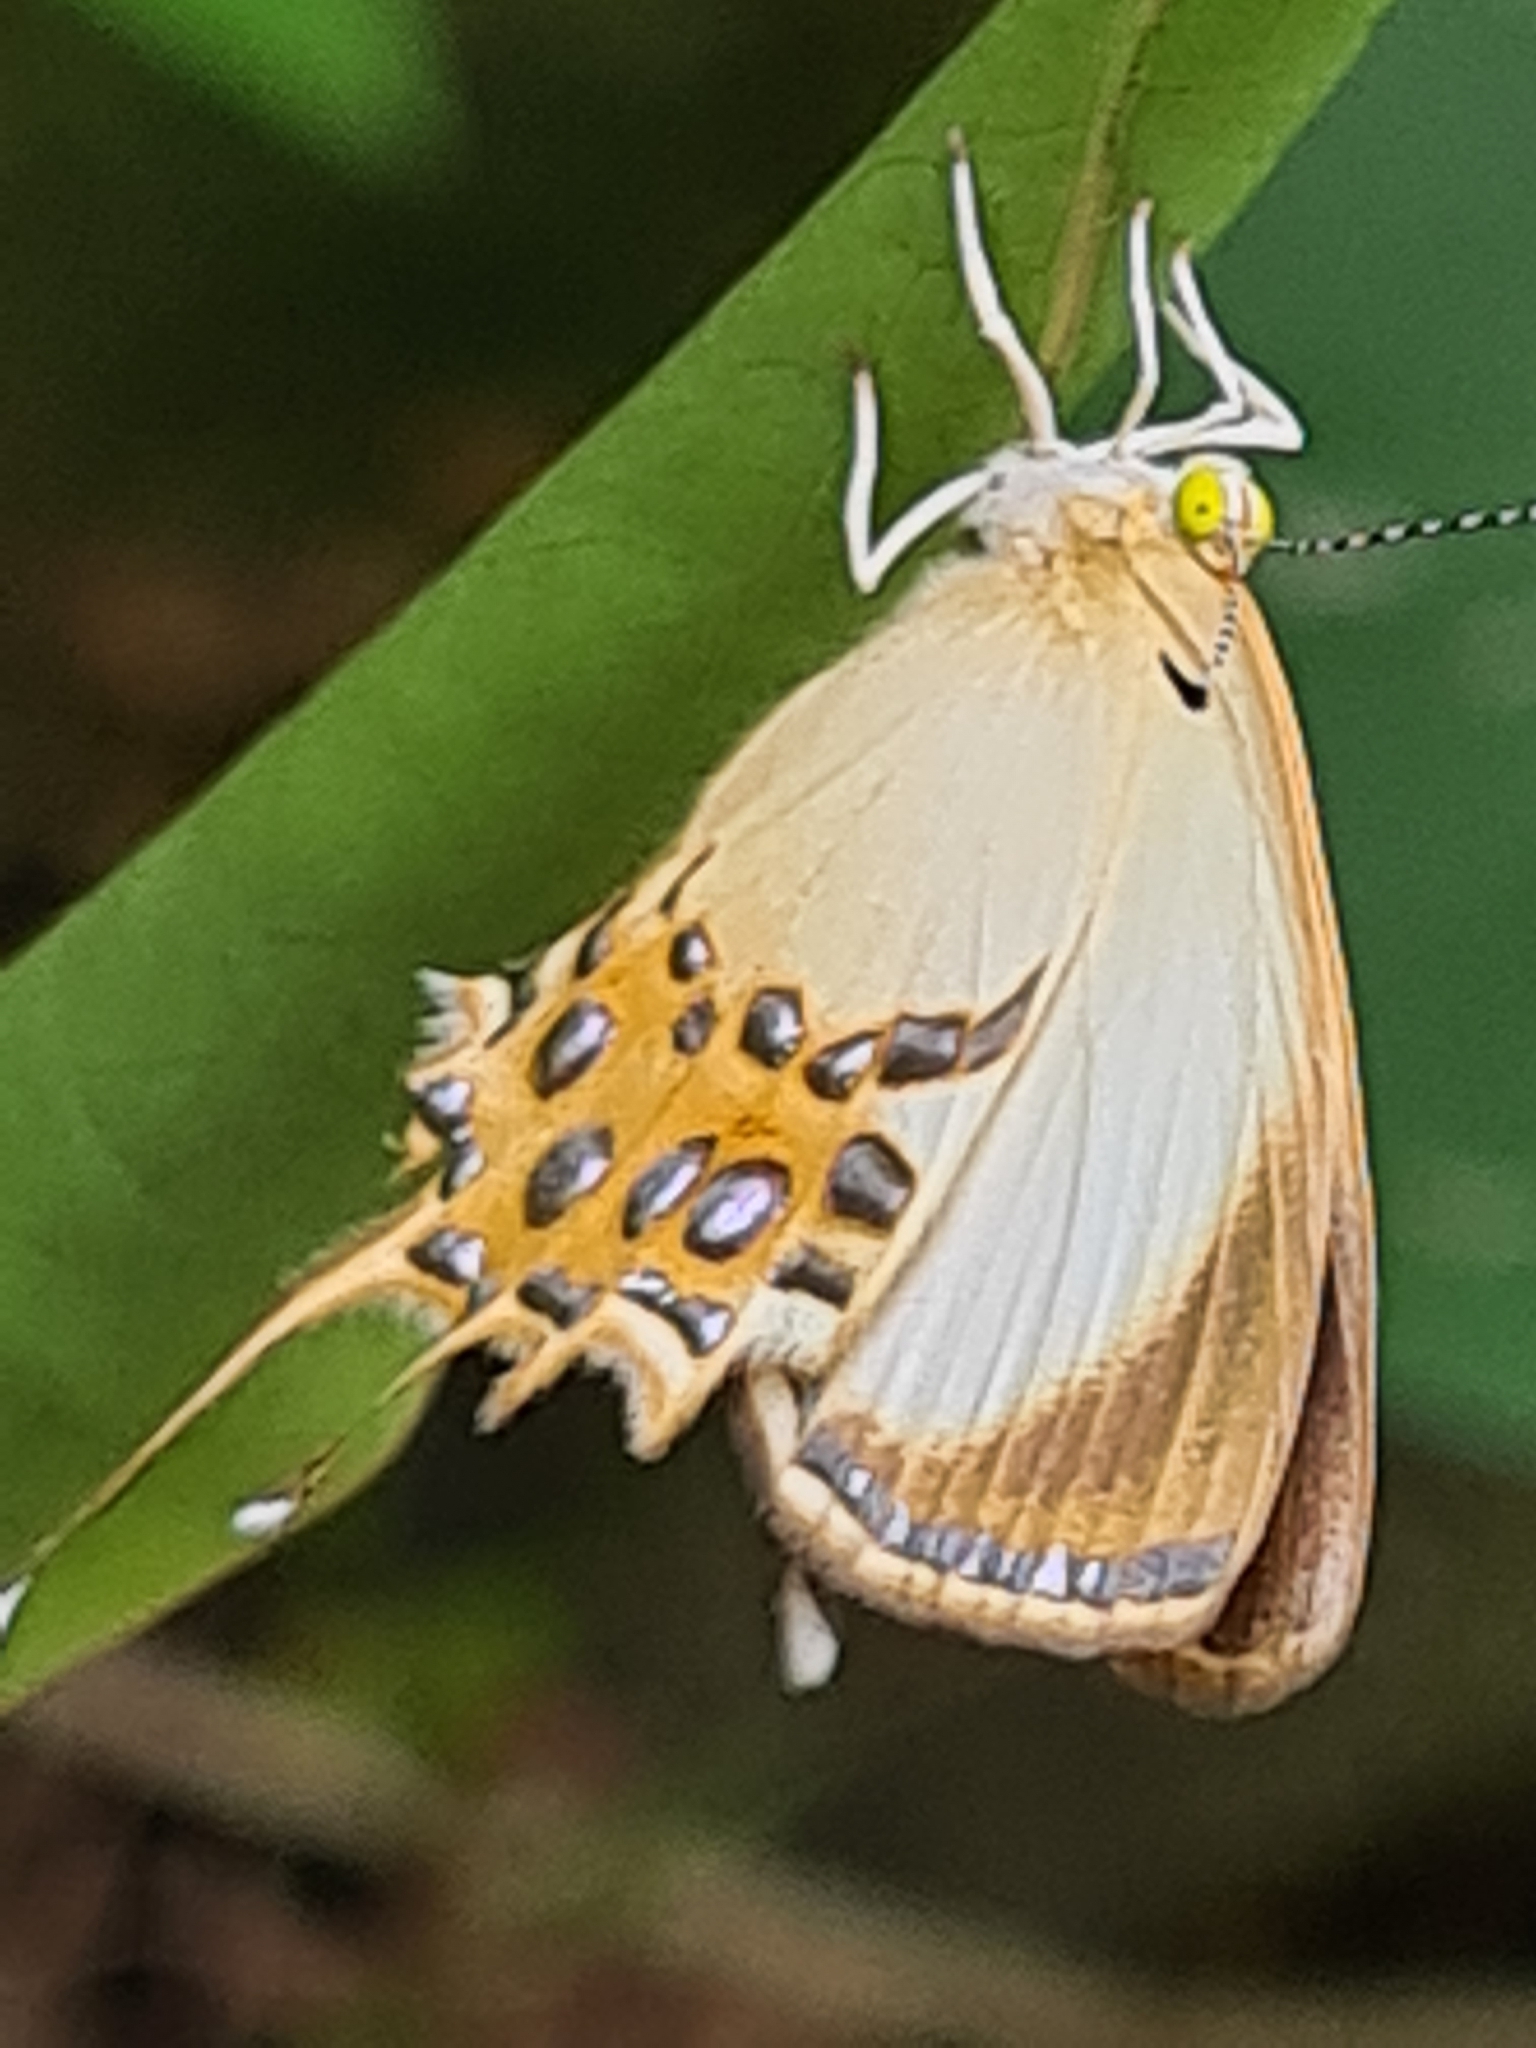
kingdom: Animalia
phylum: Arthropoda
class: Insecta
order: Lepidoptera
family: Riodinidae
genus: Helicopis
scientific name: Helicopis cupido
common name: Spangled cupid
